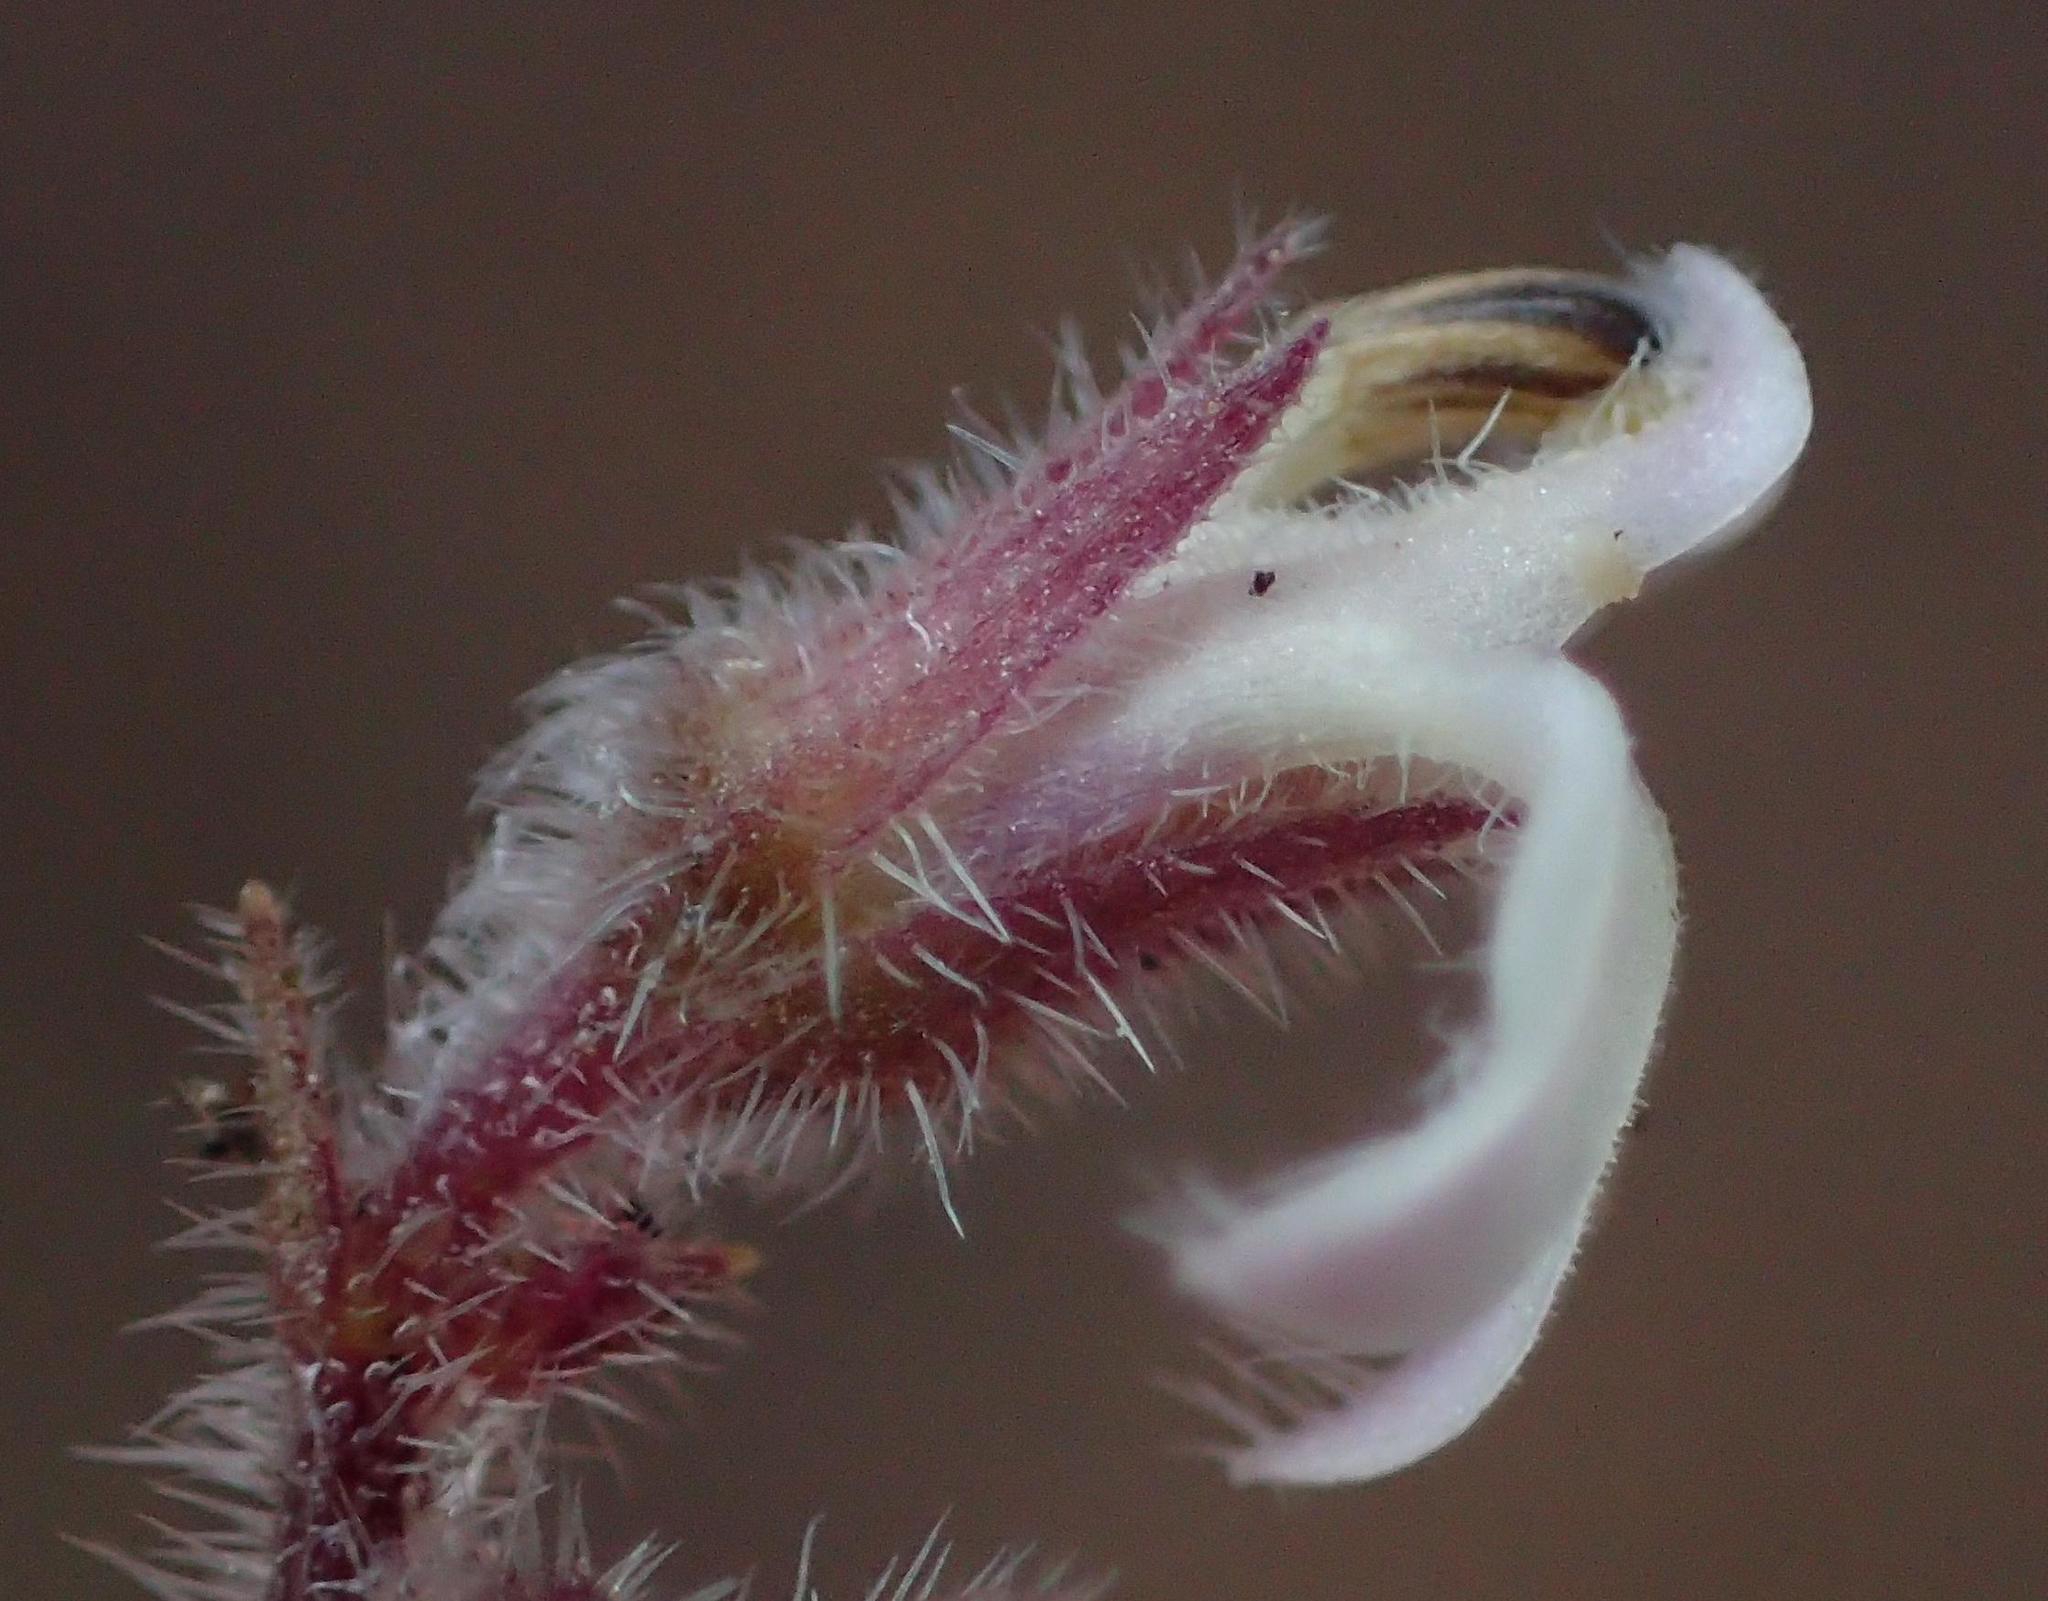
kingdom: Plantae
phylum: Tracheophyta
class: Magnoliopsida
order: Asterales
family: Campanulaceae
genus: Lobelia
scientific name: Lobelia ardisiandroides
